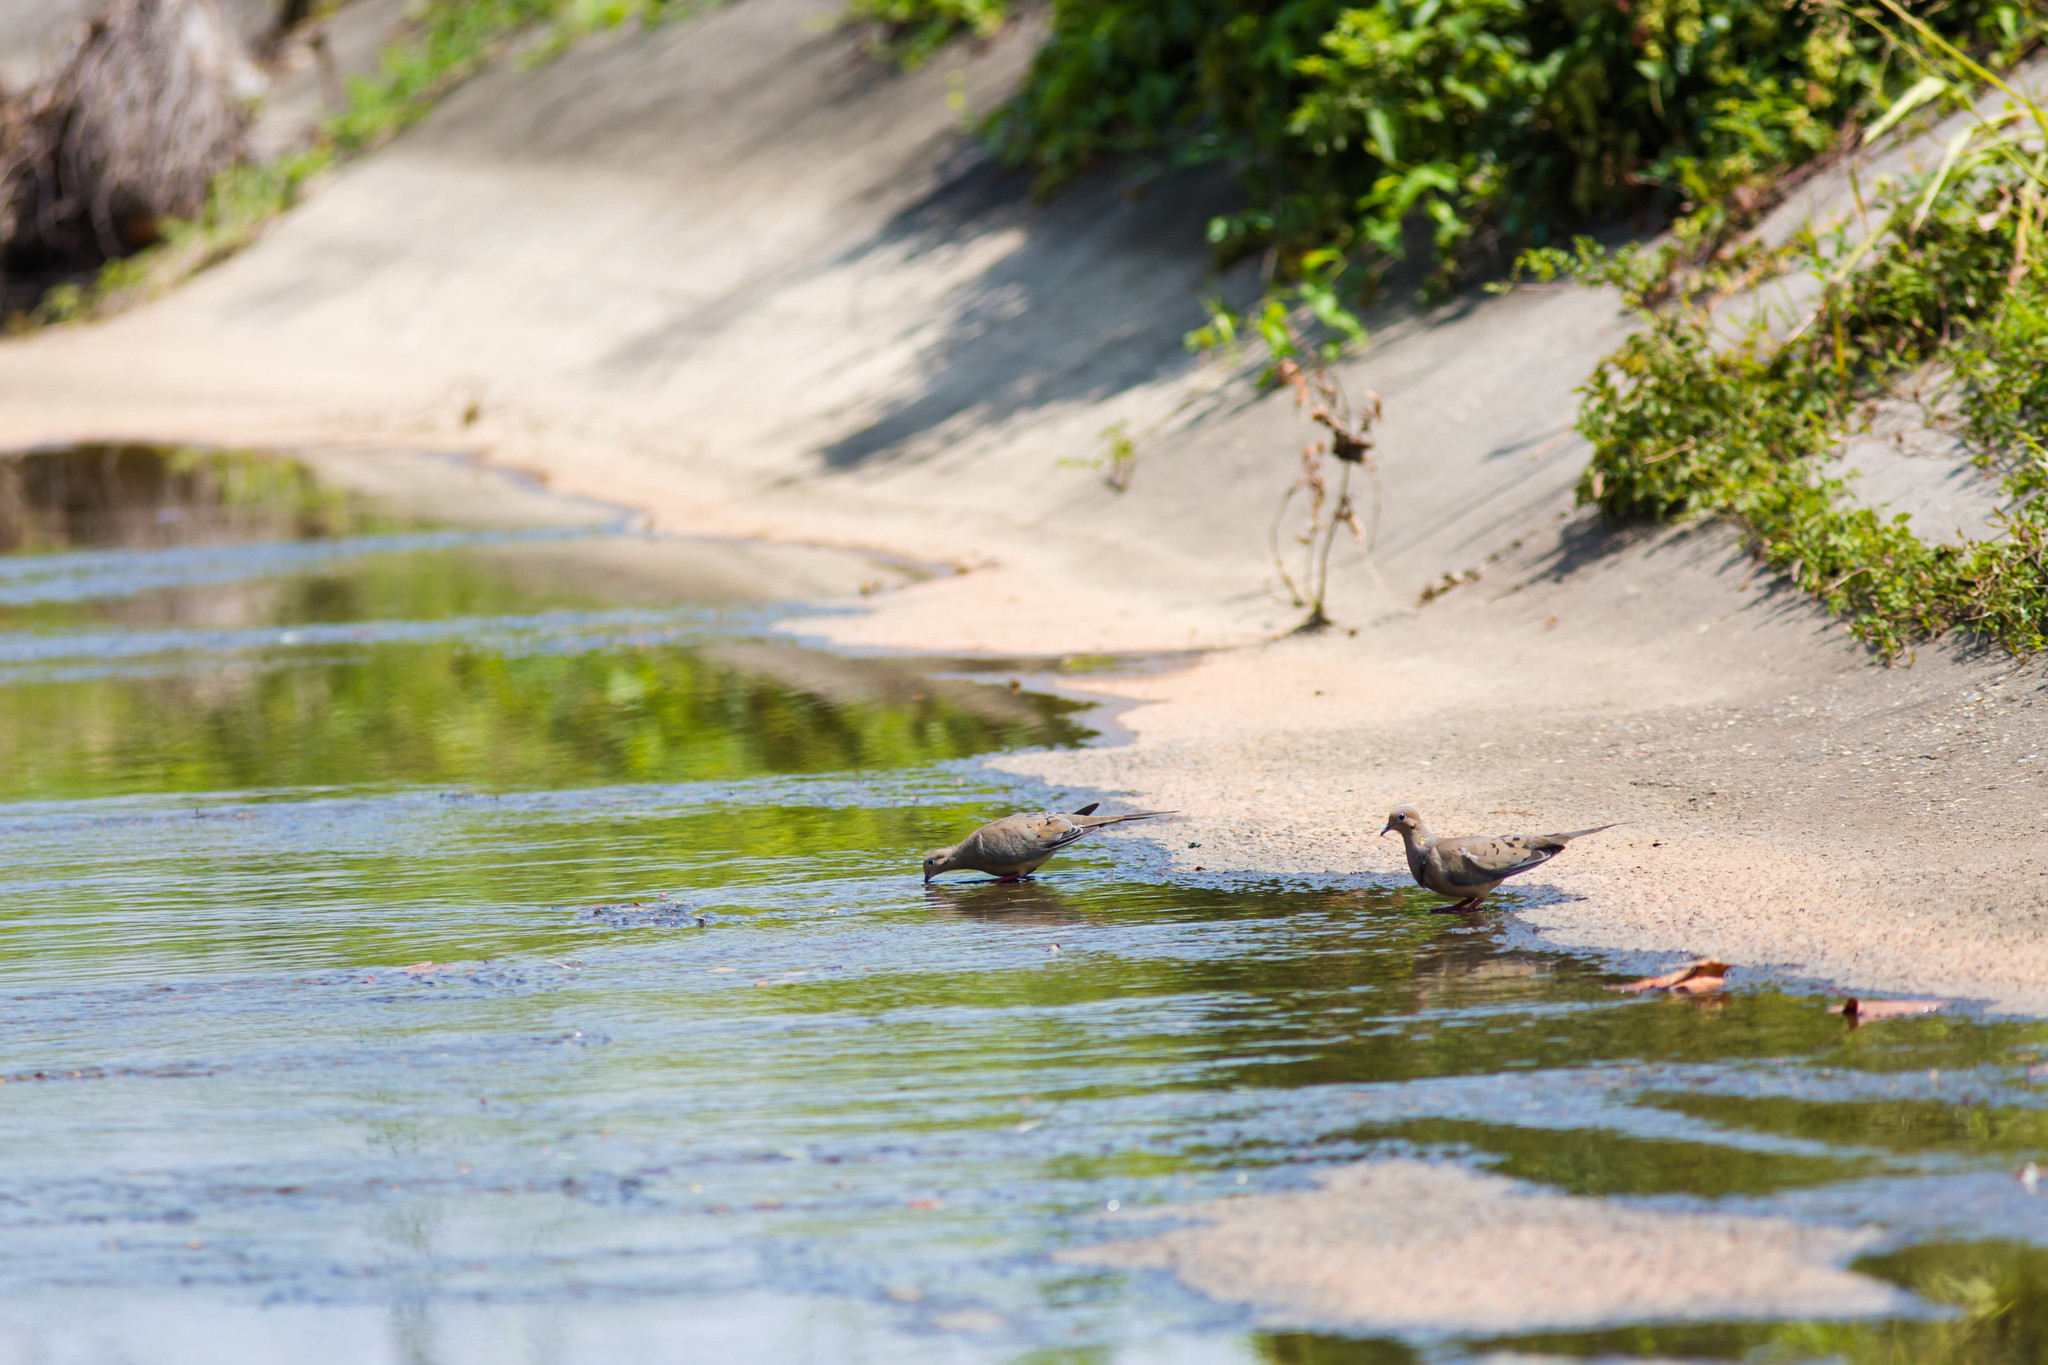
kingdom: Animalia
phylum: Chordata
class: Aves
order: Columbiformes
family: Columbidae
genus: Zenaida
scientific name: Zenaida macroura
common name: Mourning dove
